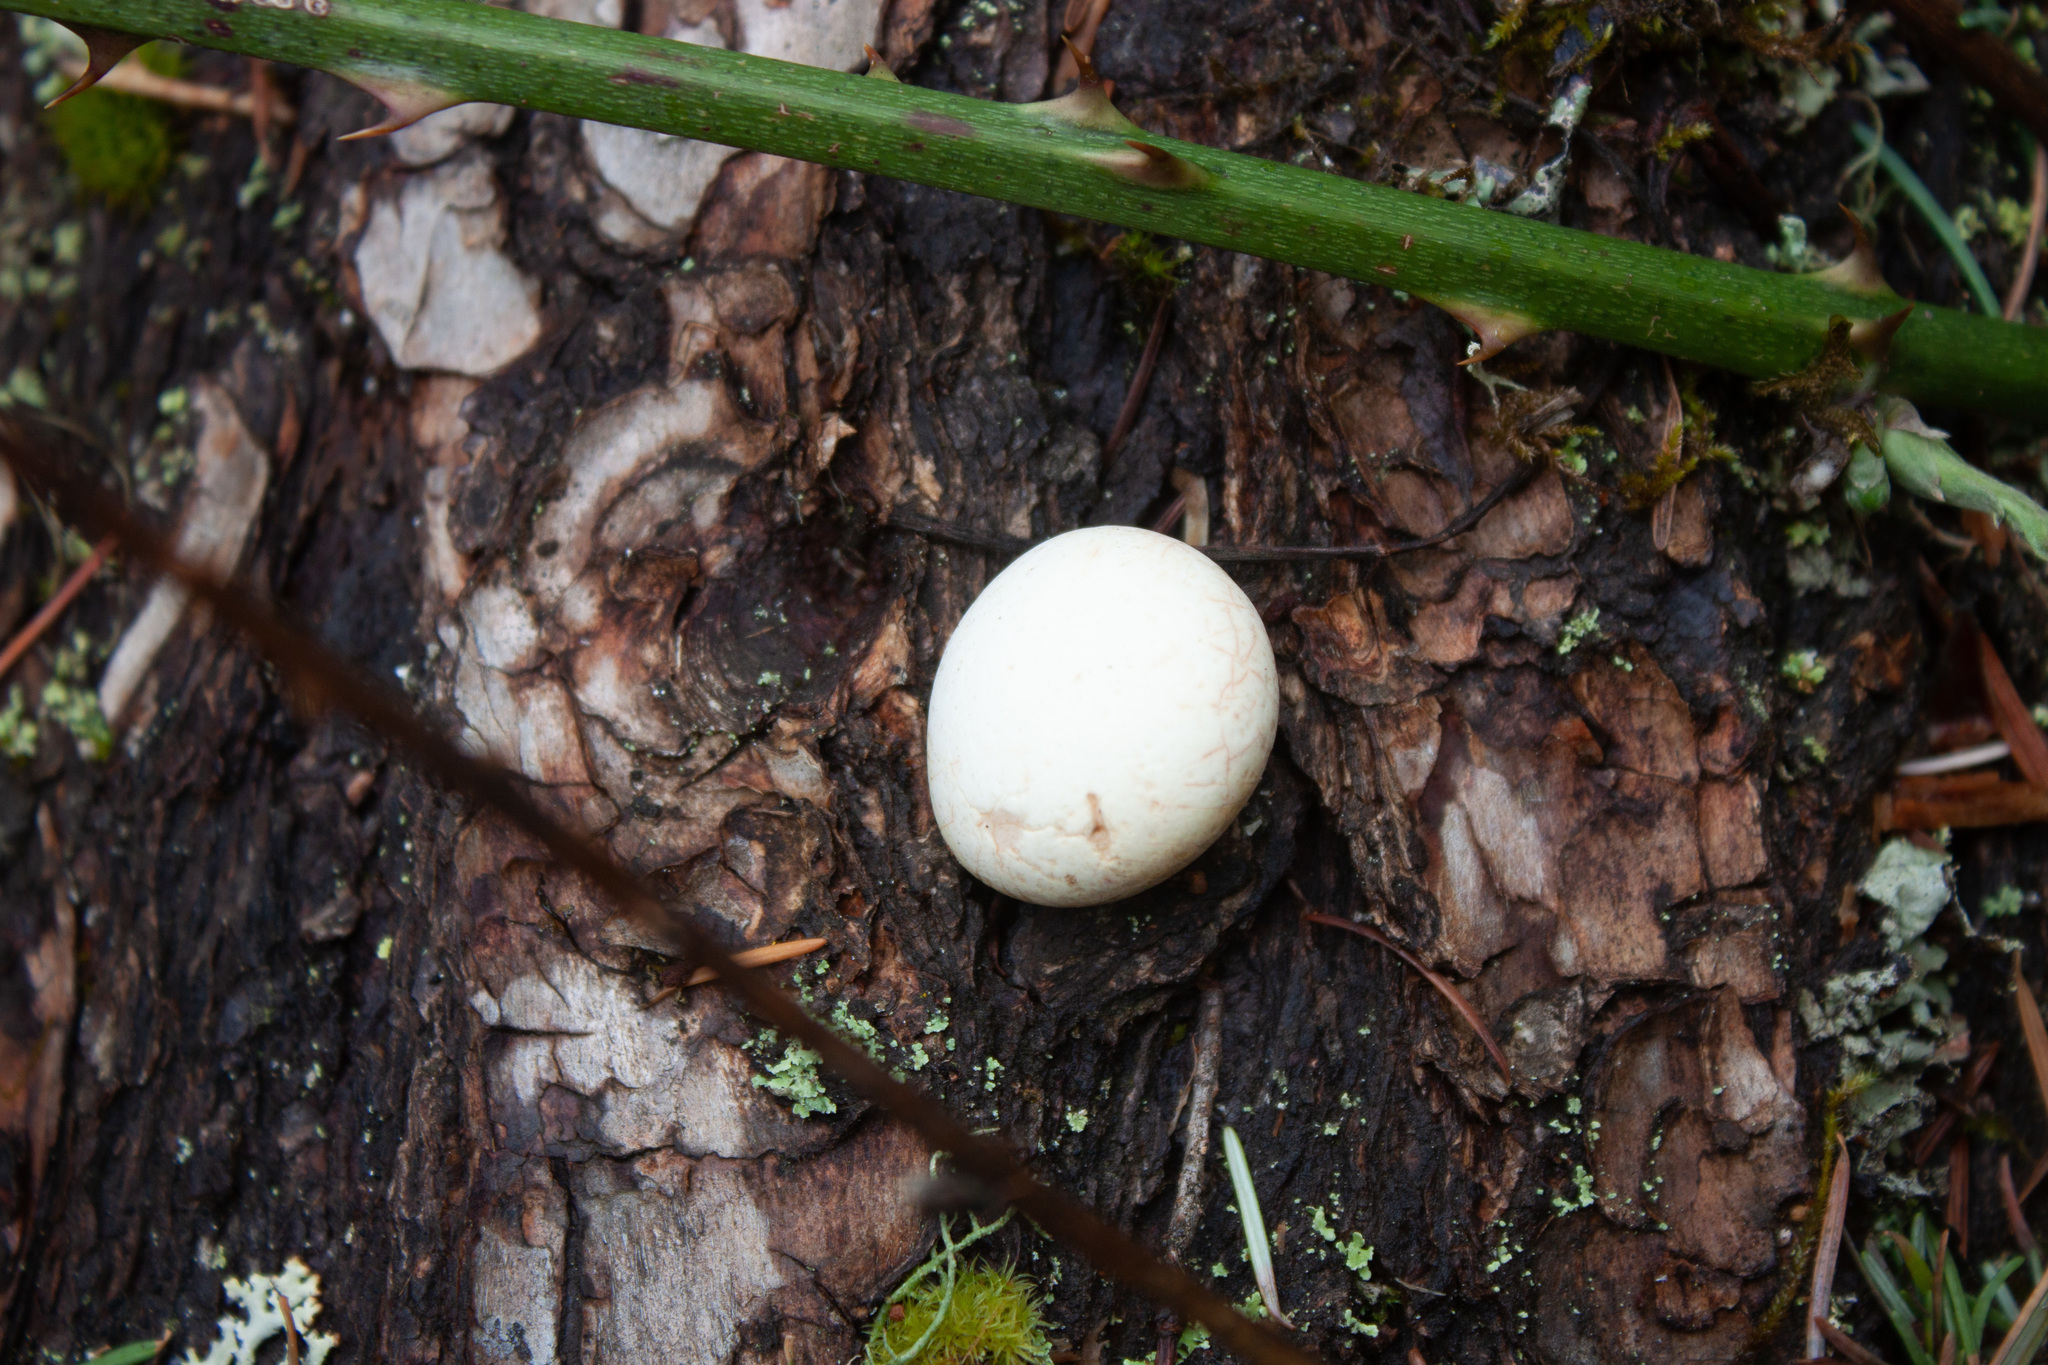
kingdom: Fungi
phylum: Basidiomycota
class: Agaricomycetes
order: Polyporales
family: Polyporaceae
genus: Cryptoporus
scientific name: Cryptoporus volvatus
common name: Veiled polypore
